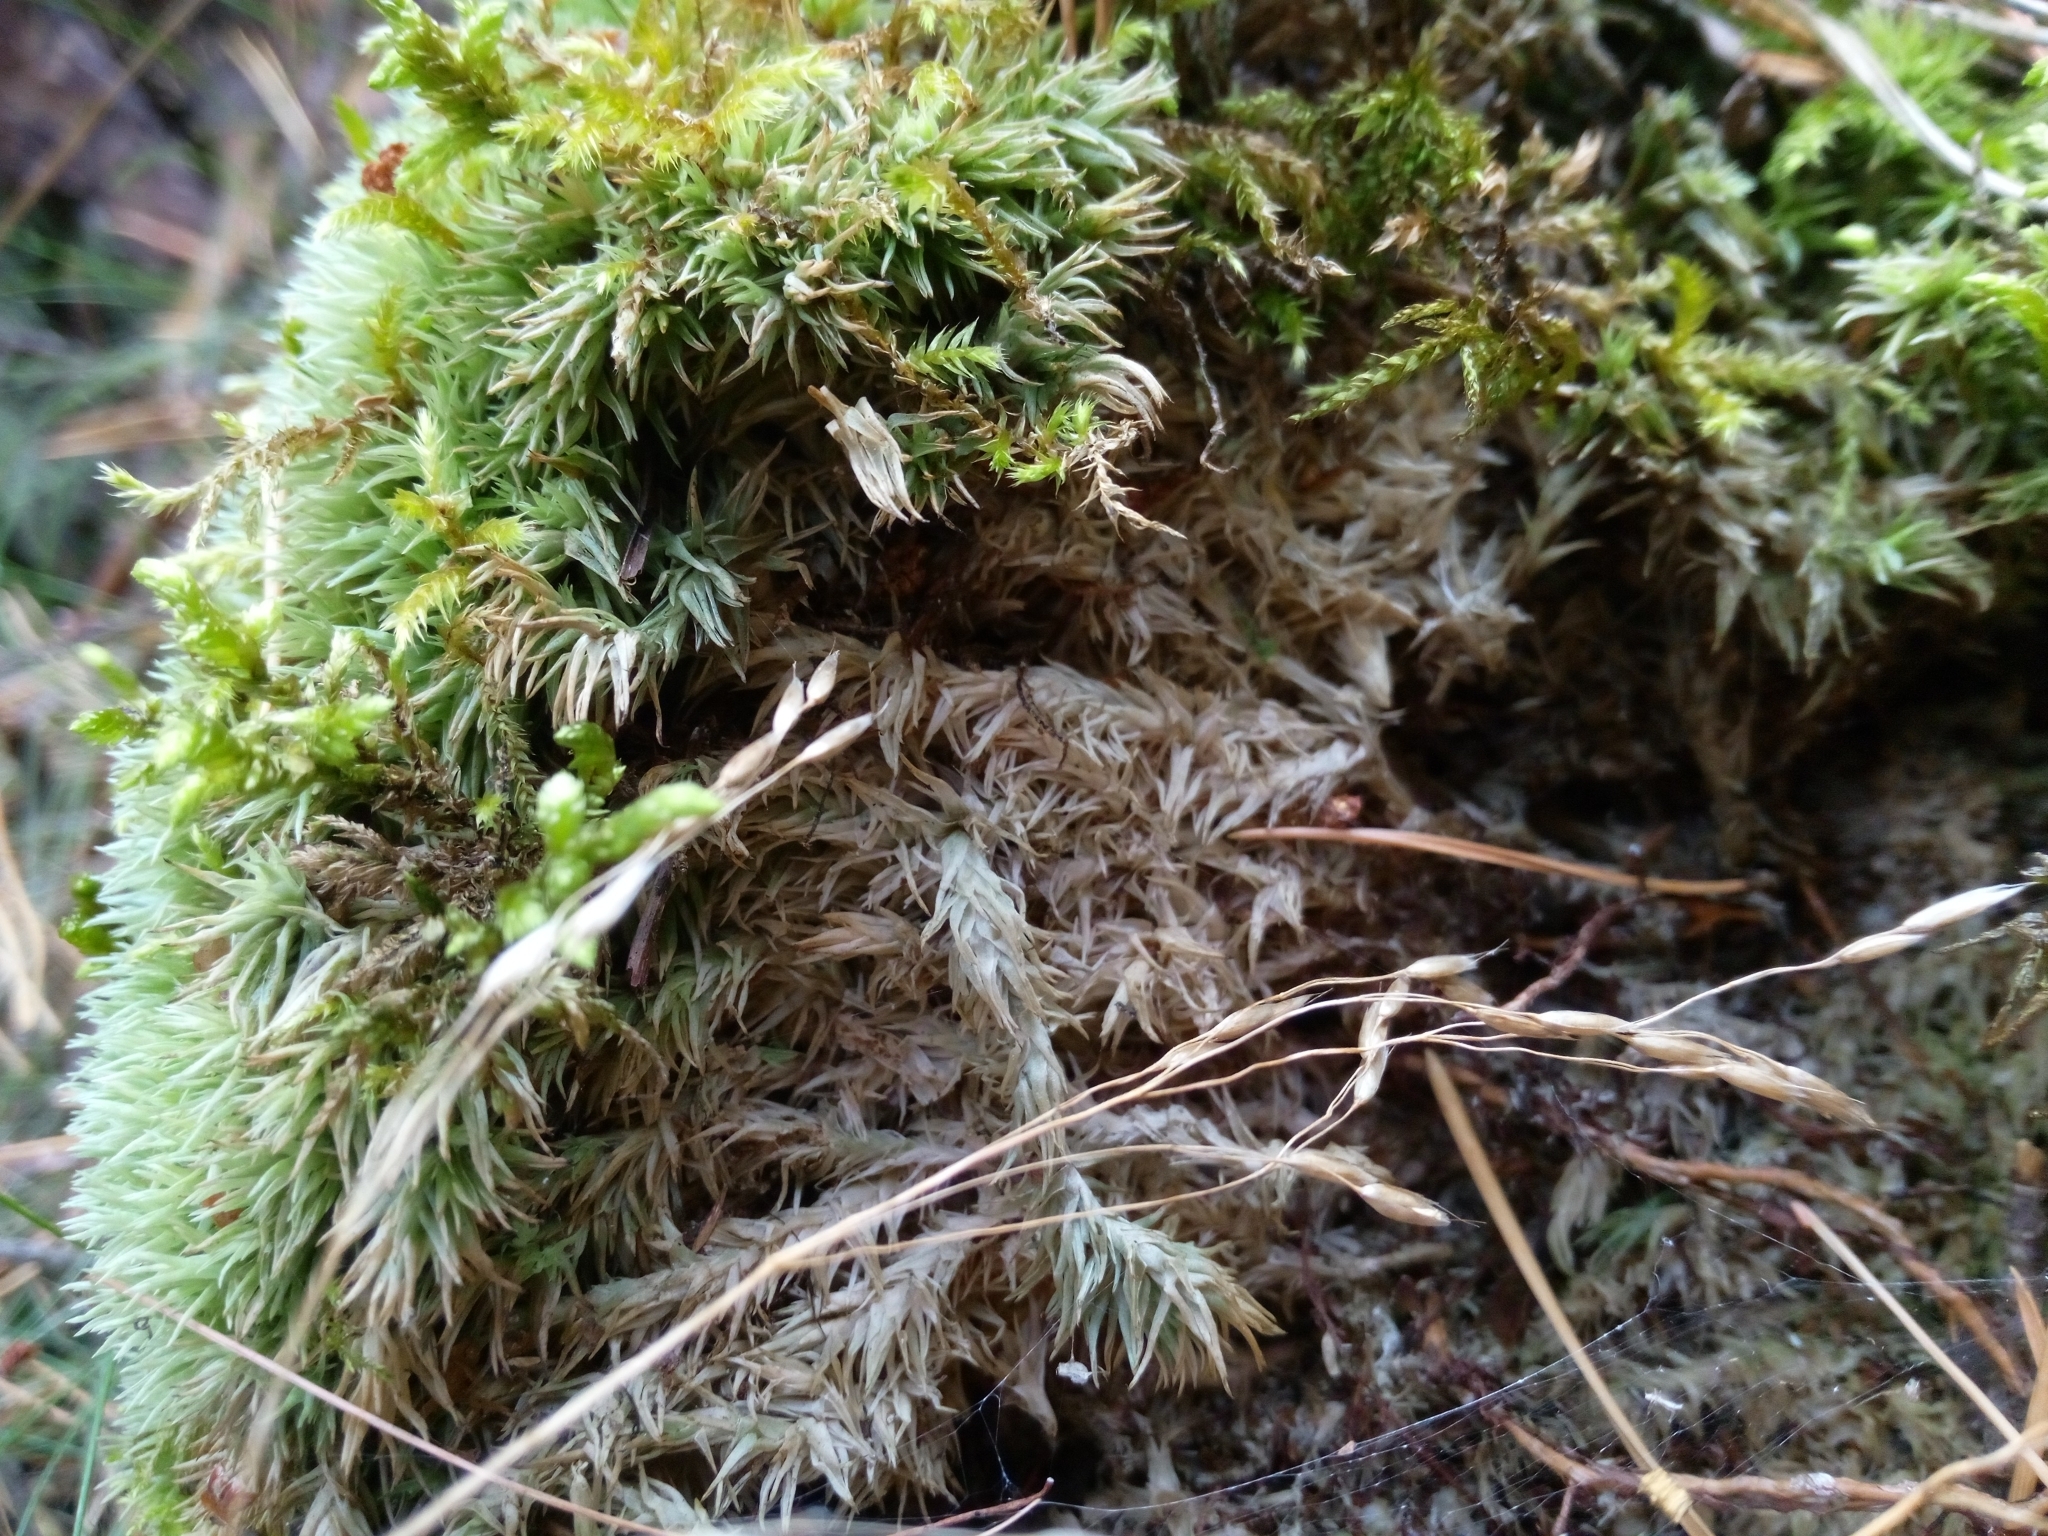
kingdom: Plantae
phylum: Bryophyta
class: Bryopsida
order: Dicranales
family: Leucobryaceae
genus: Leucobryum
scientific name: Leucobryum glaucum
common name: Large white-moss
